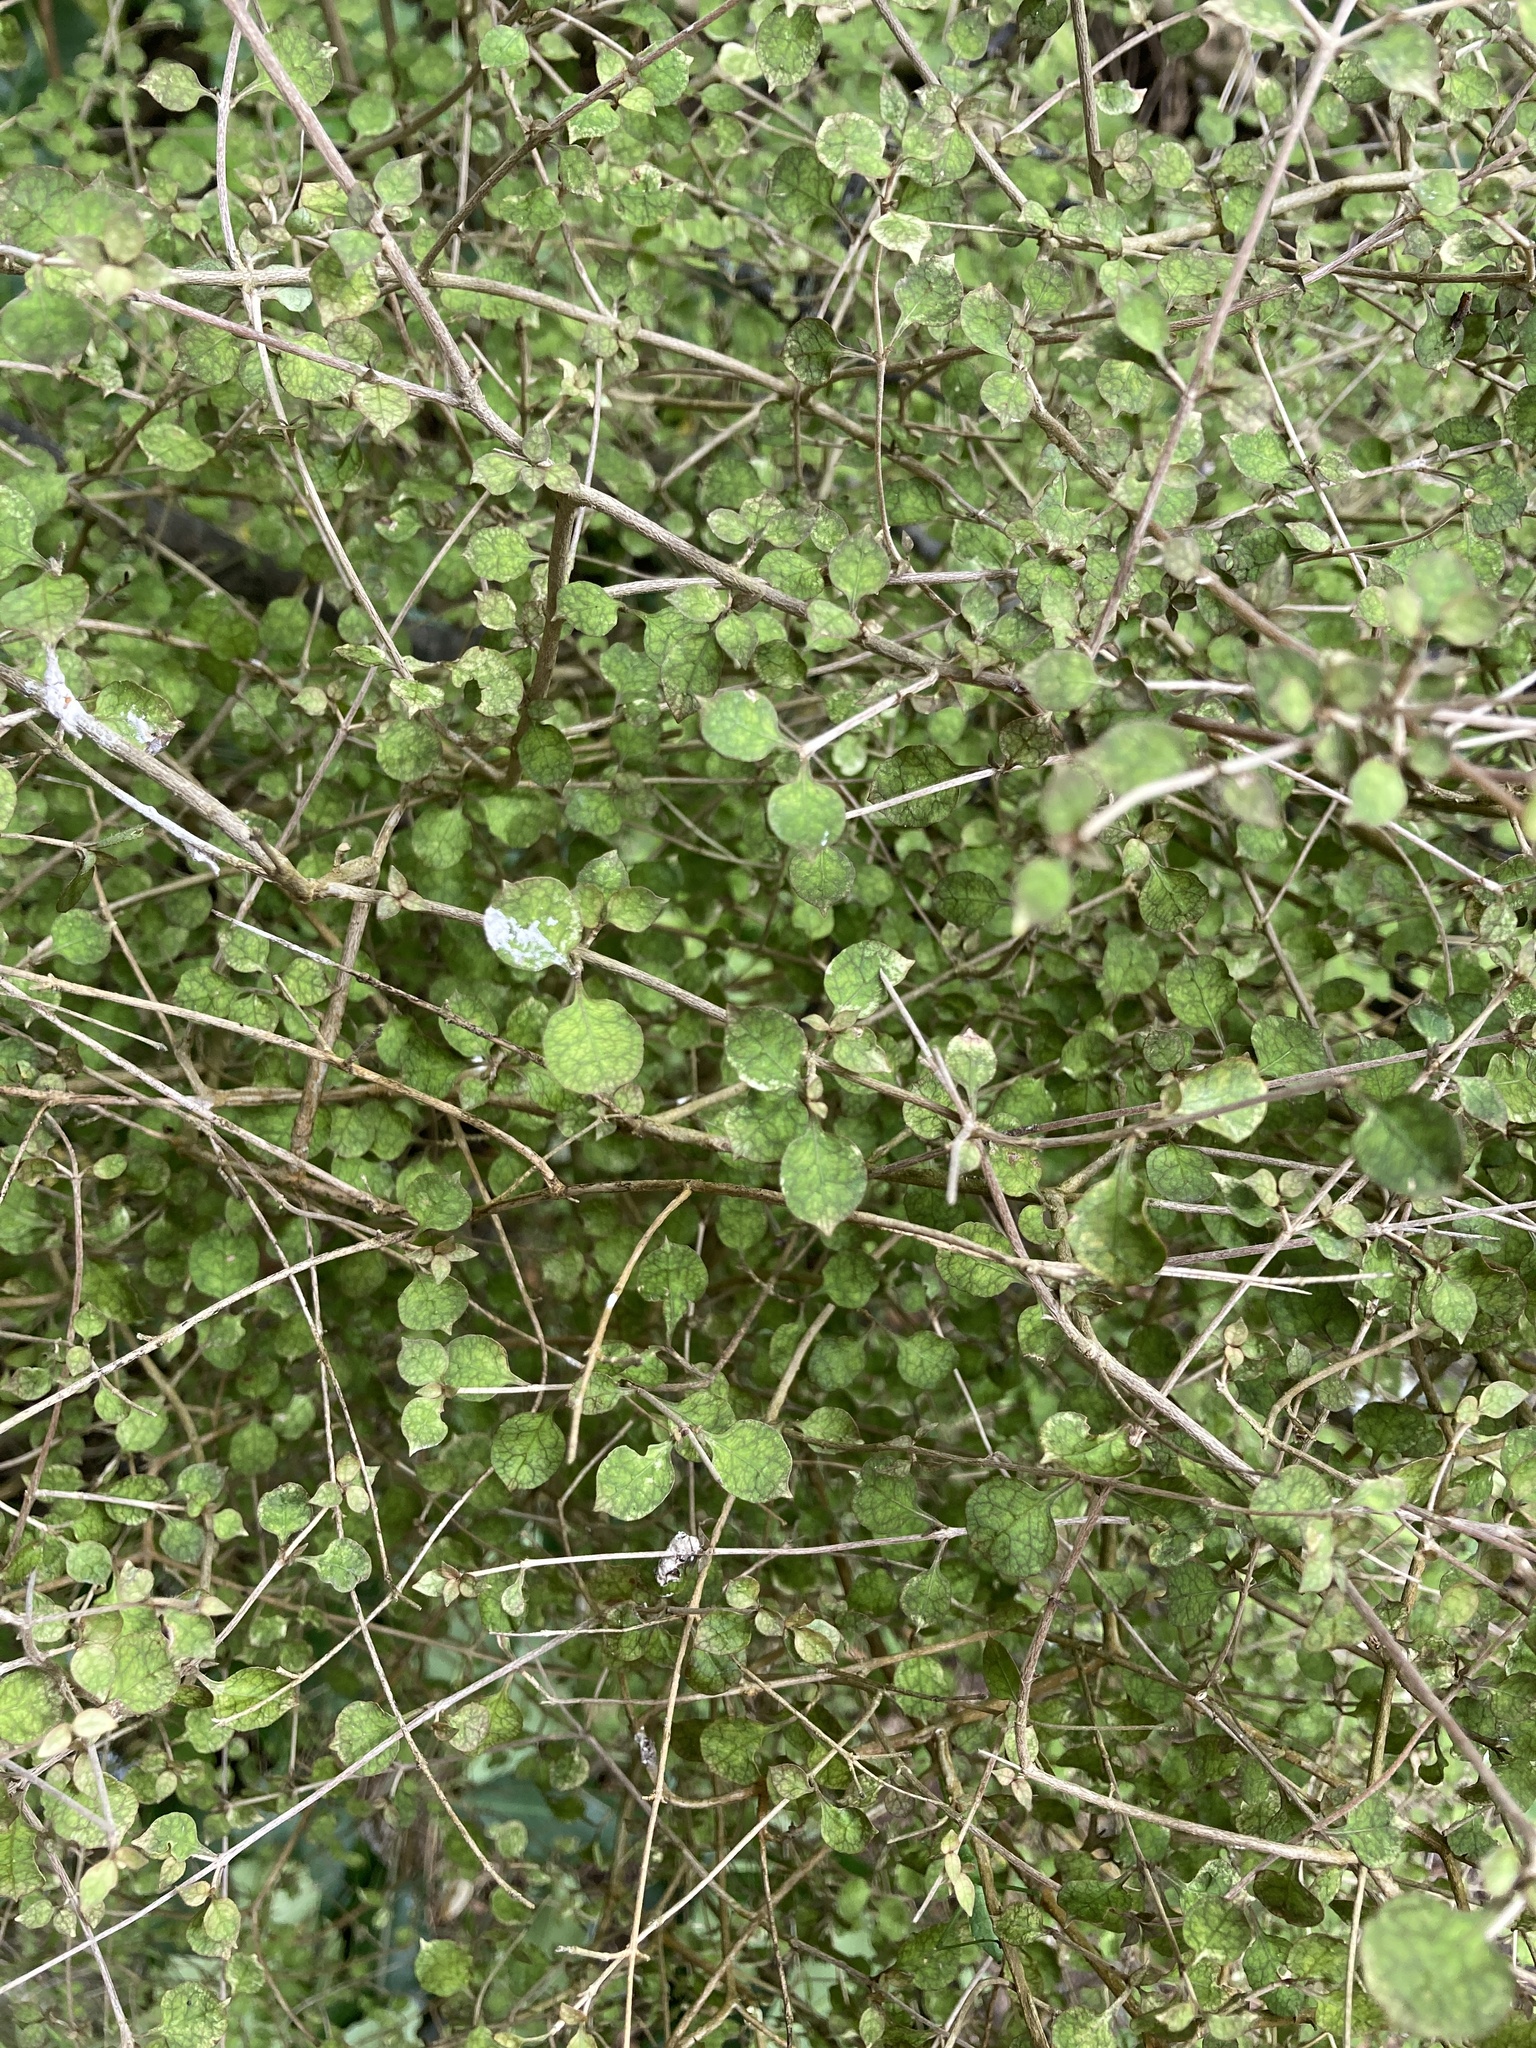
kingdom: Plantae
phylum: Tracheophyta
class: Magnoliopsida
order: Gentianales
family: Rubiaceae
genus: Coprosma
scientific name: Coprosma areolata
